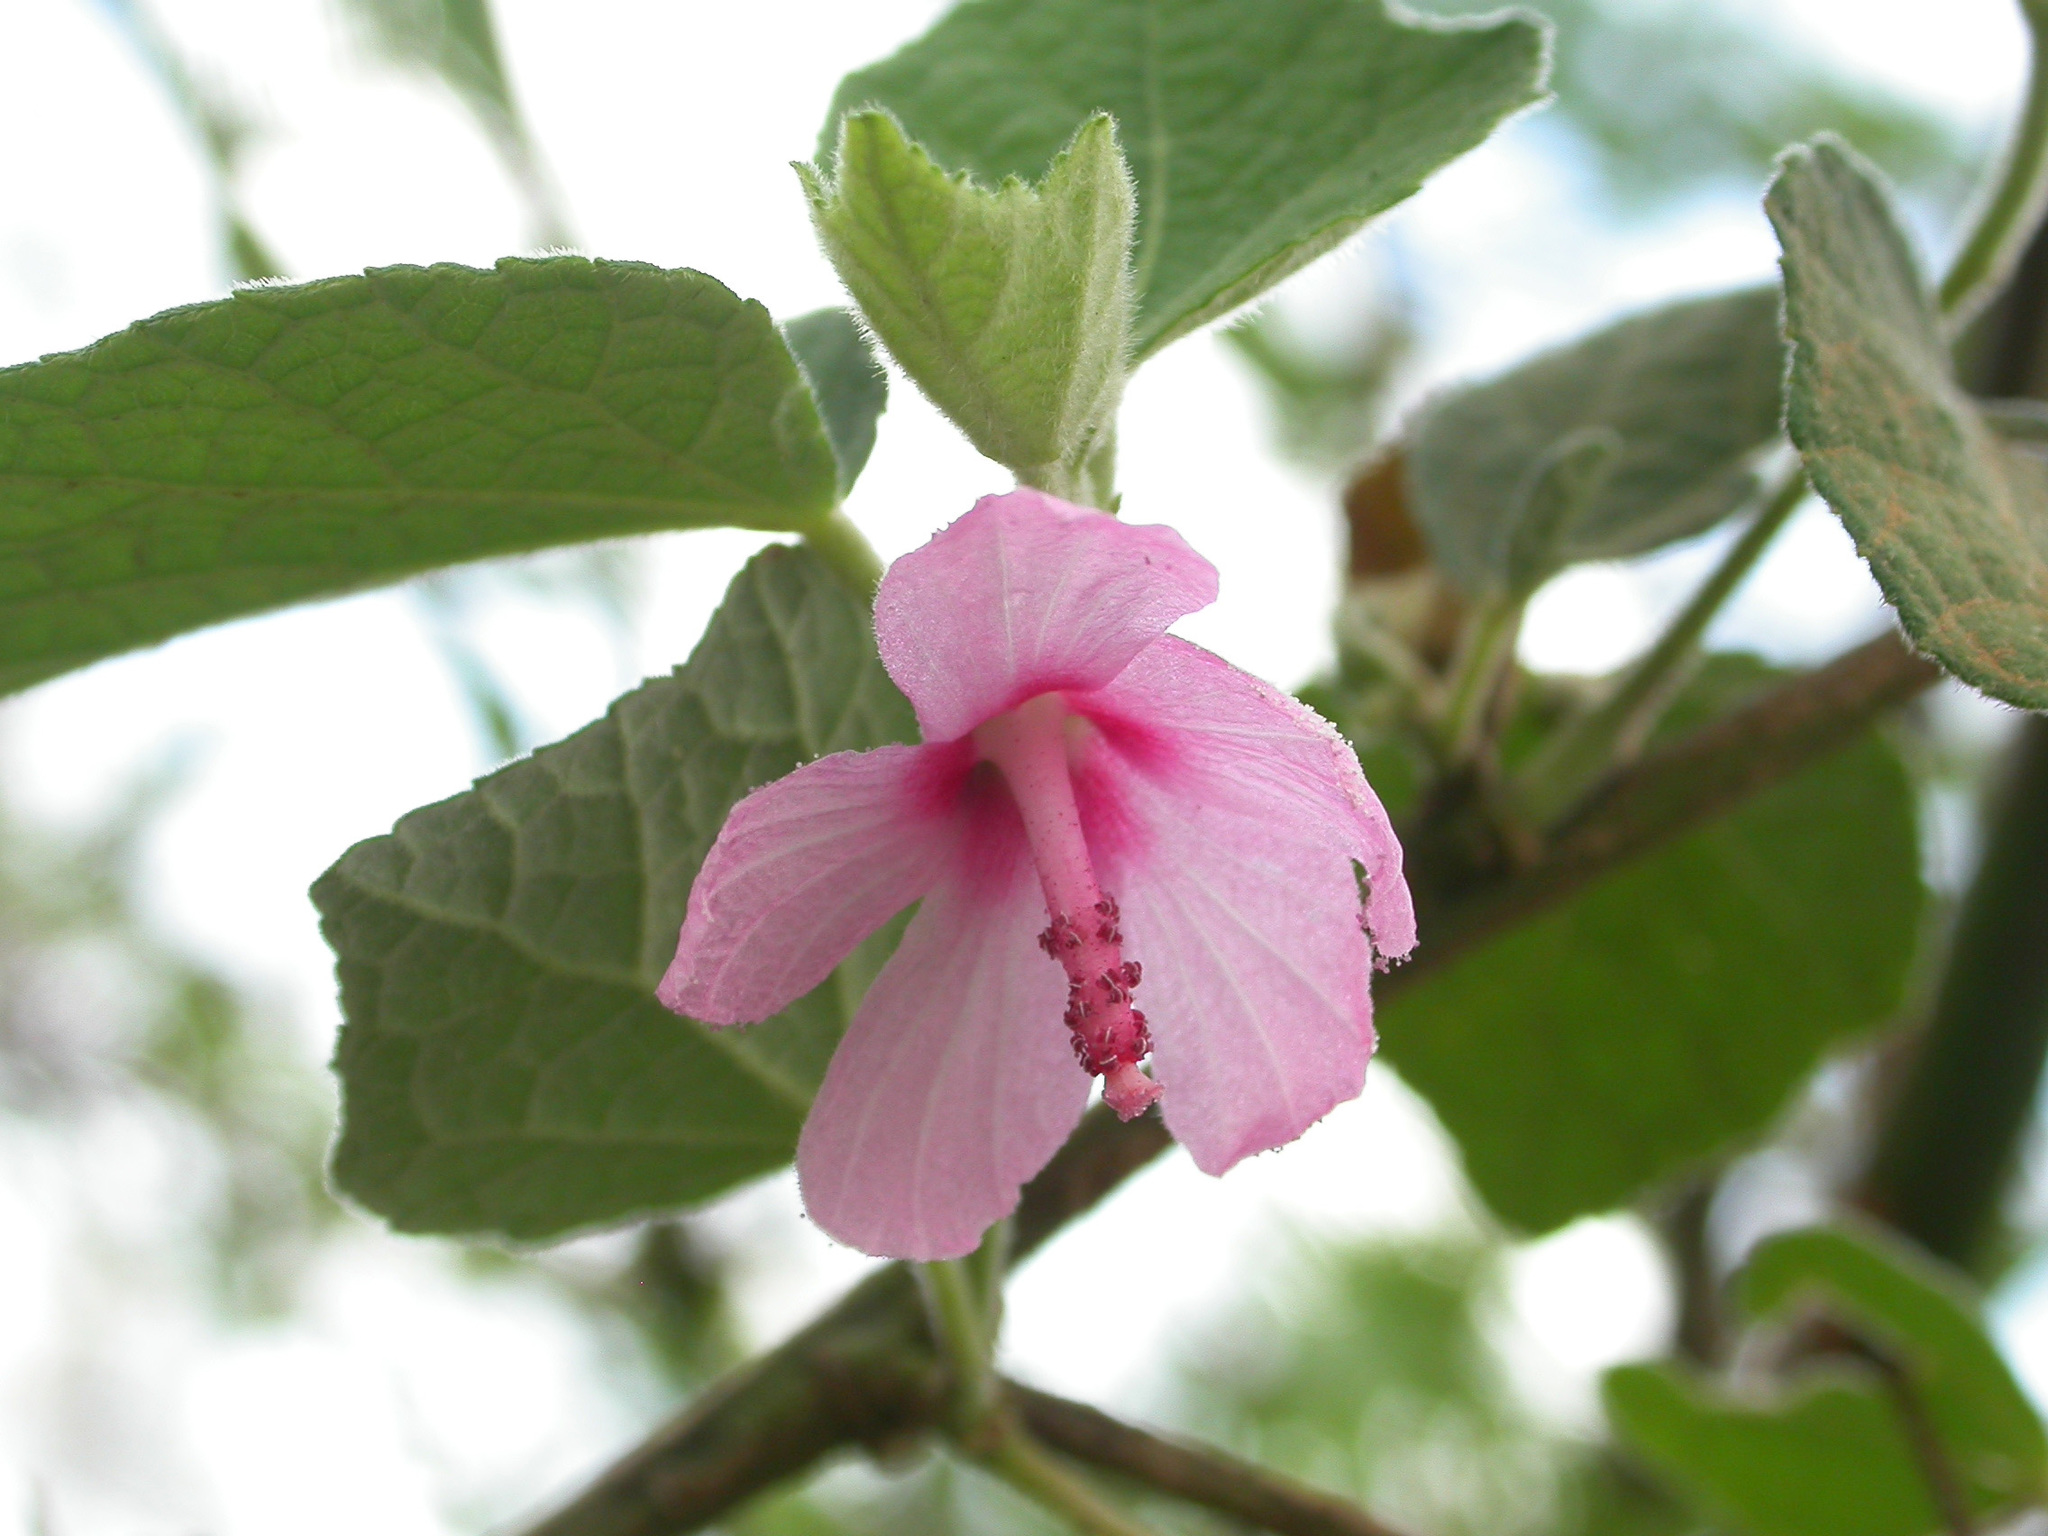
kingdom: Plantae
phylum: Tracheophyta
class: Magnoliopsida
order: Malvales
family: Malvaceae
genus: Urena
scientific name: Urena lobata
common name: Caesarweed
